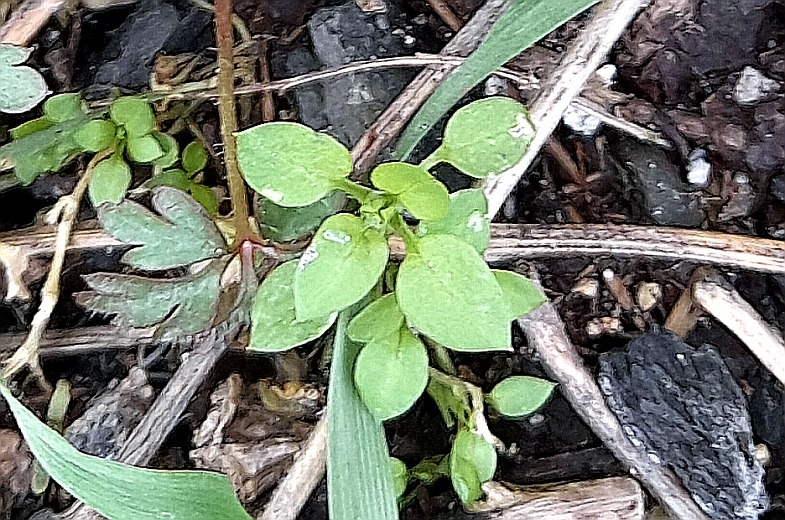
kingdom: Plantae
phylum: Tracheophyta
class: Magnoliopsida
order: Caryophyllales
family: Caryophyllaceae
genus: Stellaria
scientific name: Stellaria
